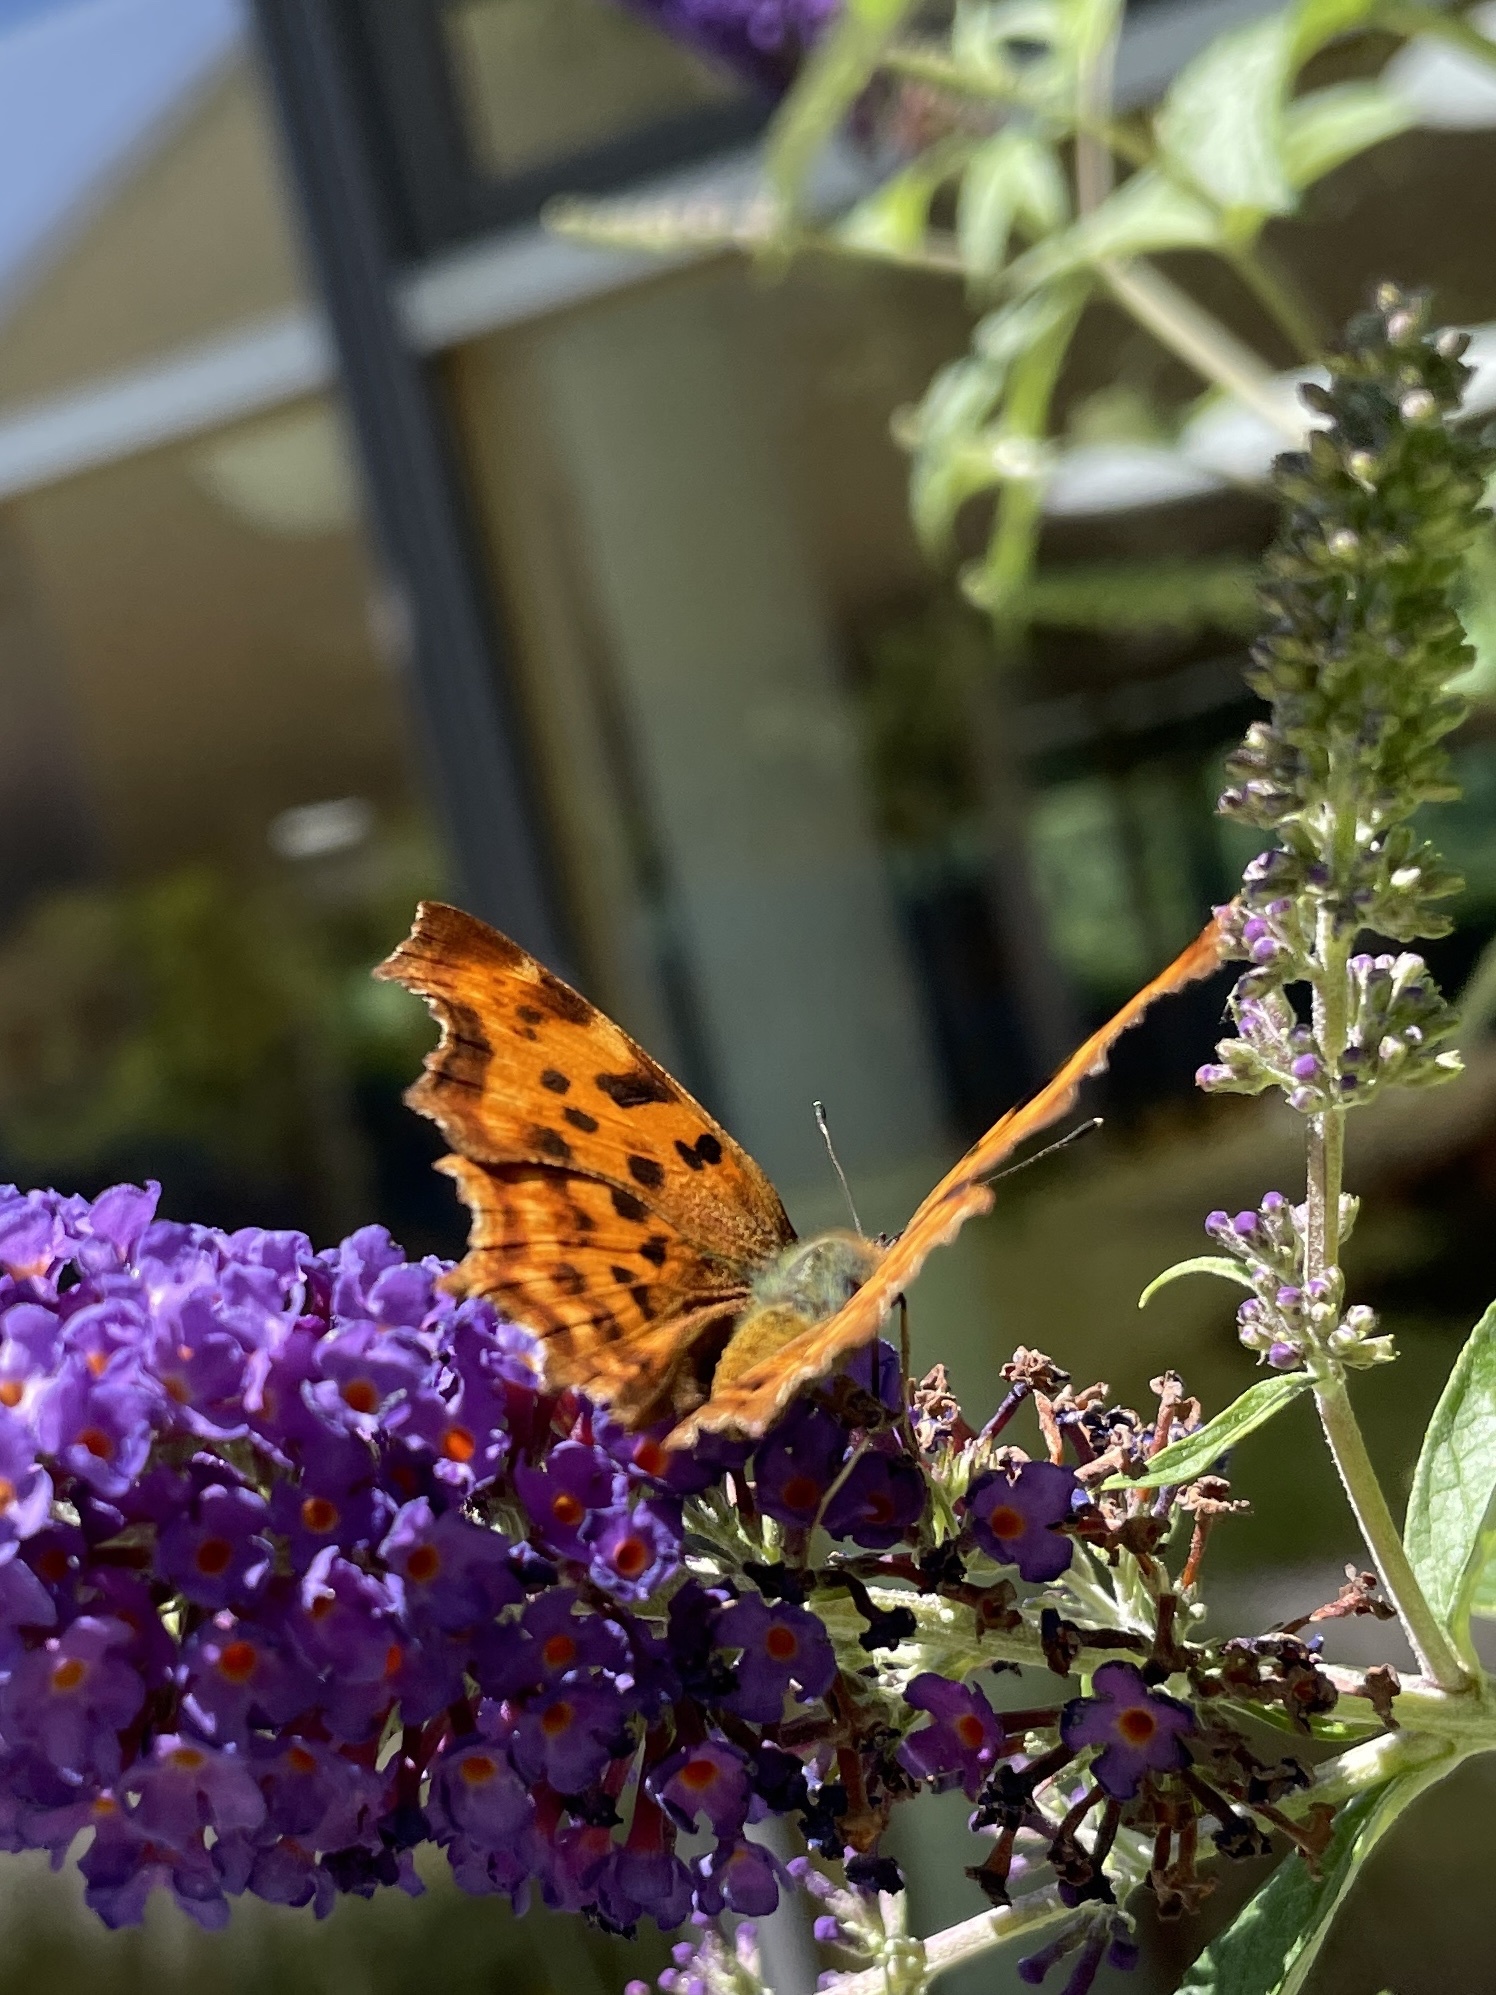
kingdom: Animalia
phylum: Arthropoda
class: Insecta
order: Lepidoptera
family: Nymphalidae
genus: Polygonia
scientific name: Polygonia c-album
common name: Comma
